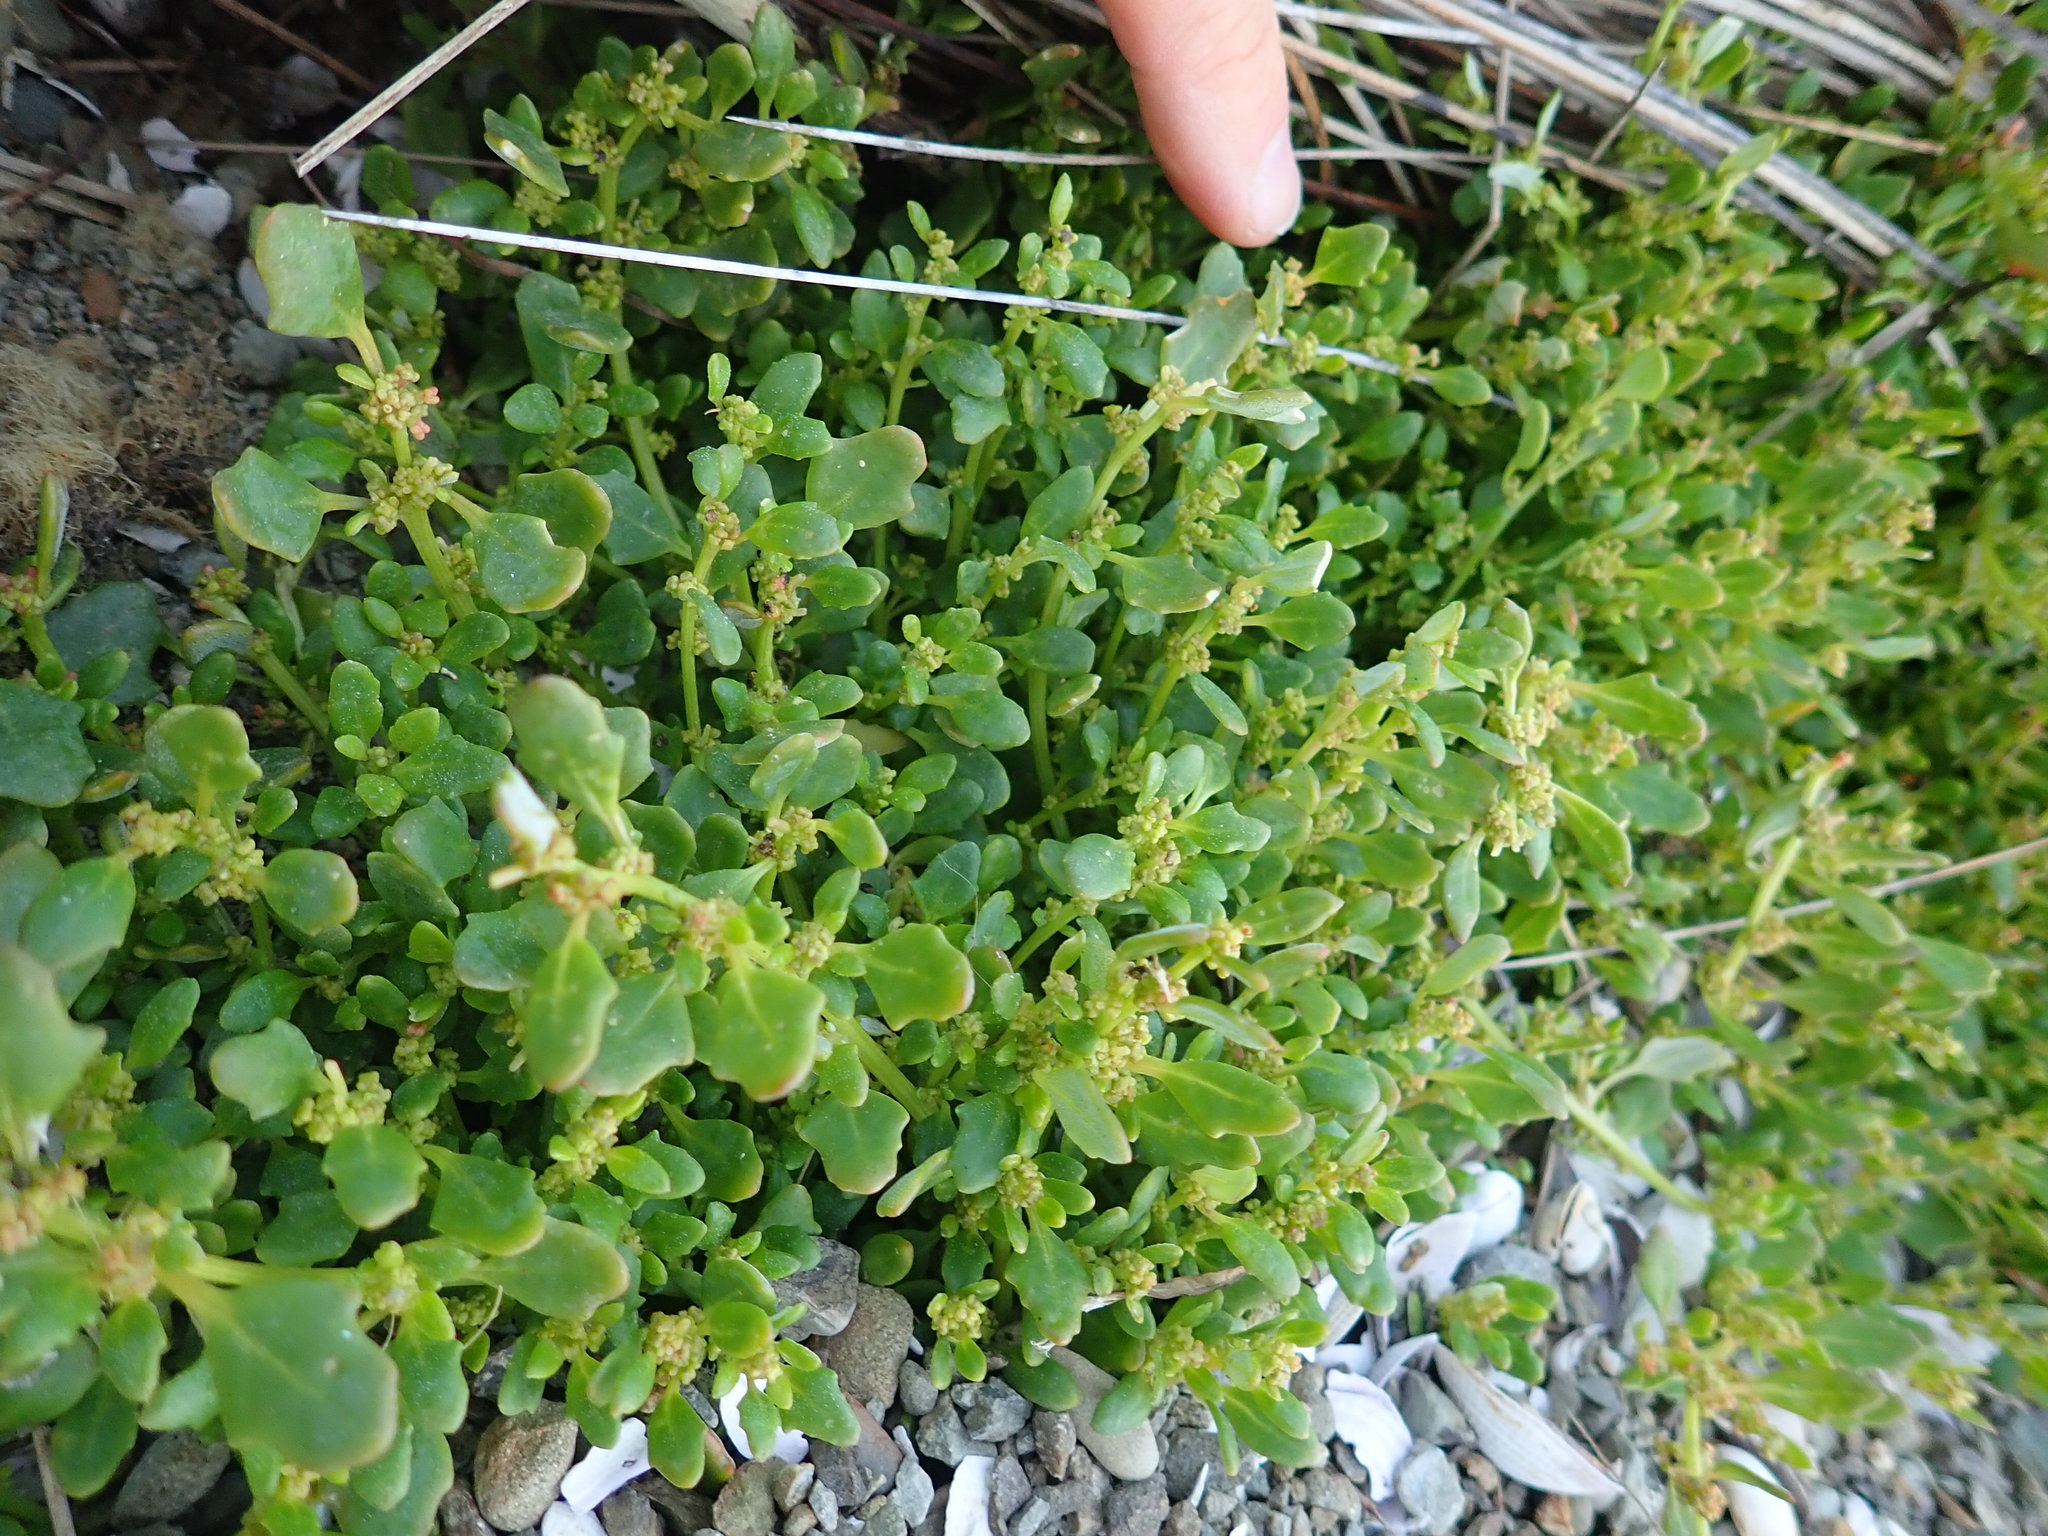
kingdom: Plantae
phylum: Tracheophyta
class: Magnoliopsida
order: Caryophyllales
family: Amaranthaceae
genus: Oxybasis
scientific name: Oxybasis ambigua
